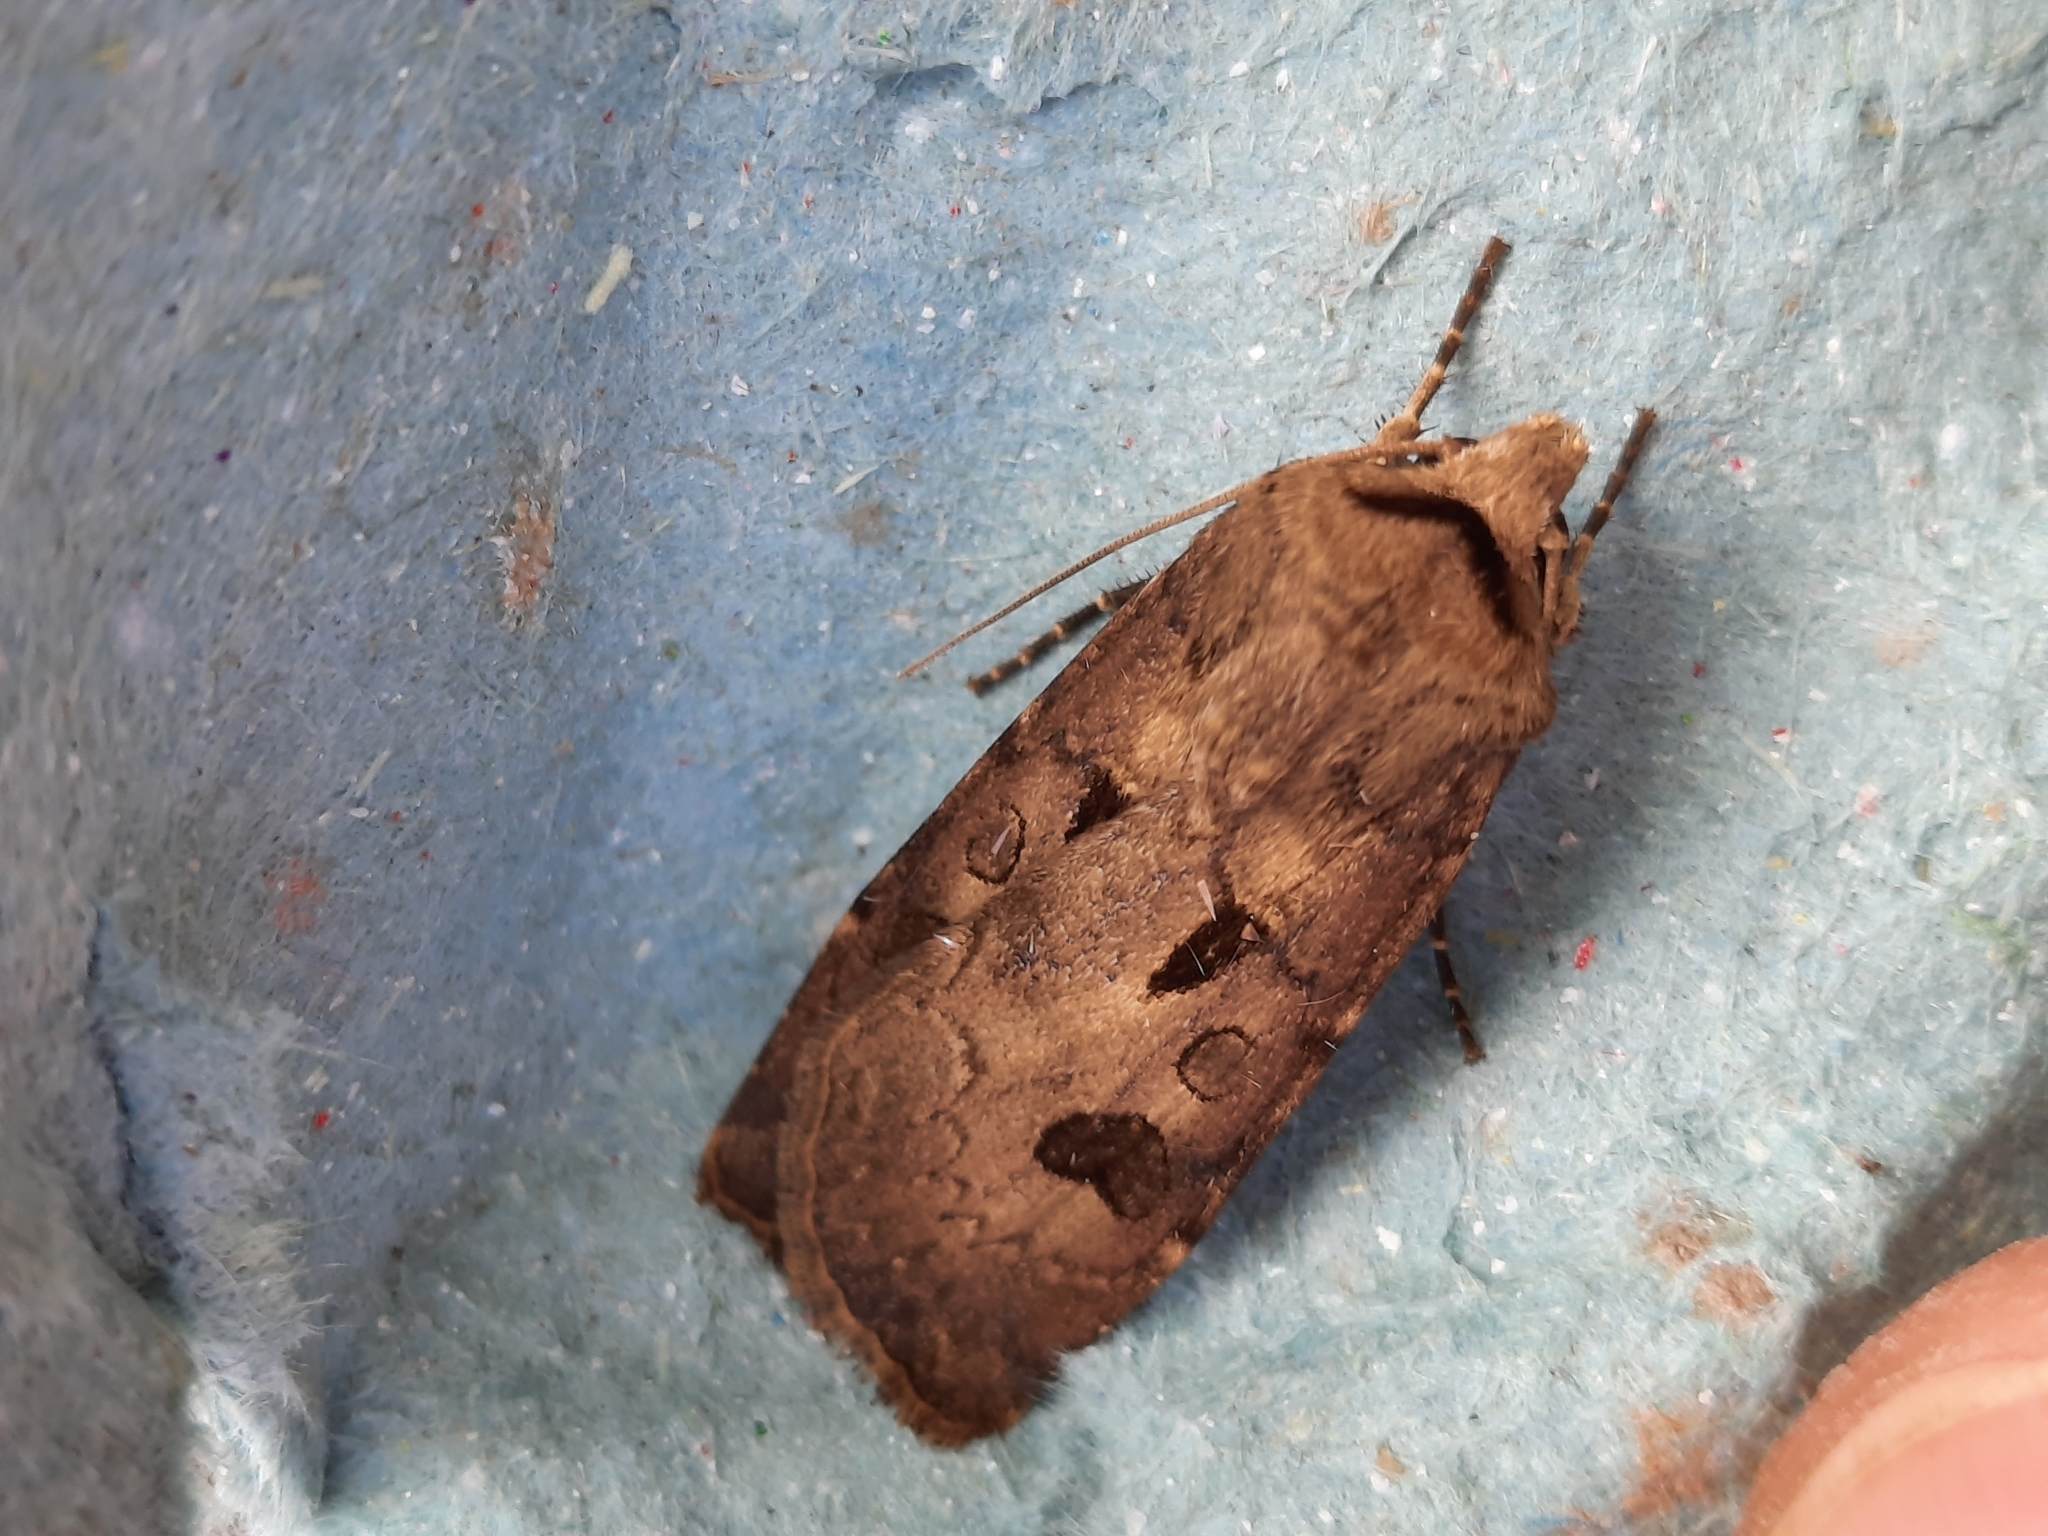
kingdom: Animalia
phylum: Arthropoda
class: Insecta
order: Lepidoptera
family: Noctuidae
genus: Agrotis
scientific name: Agrotis exclamationis
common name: Heart and dart
